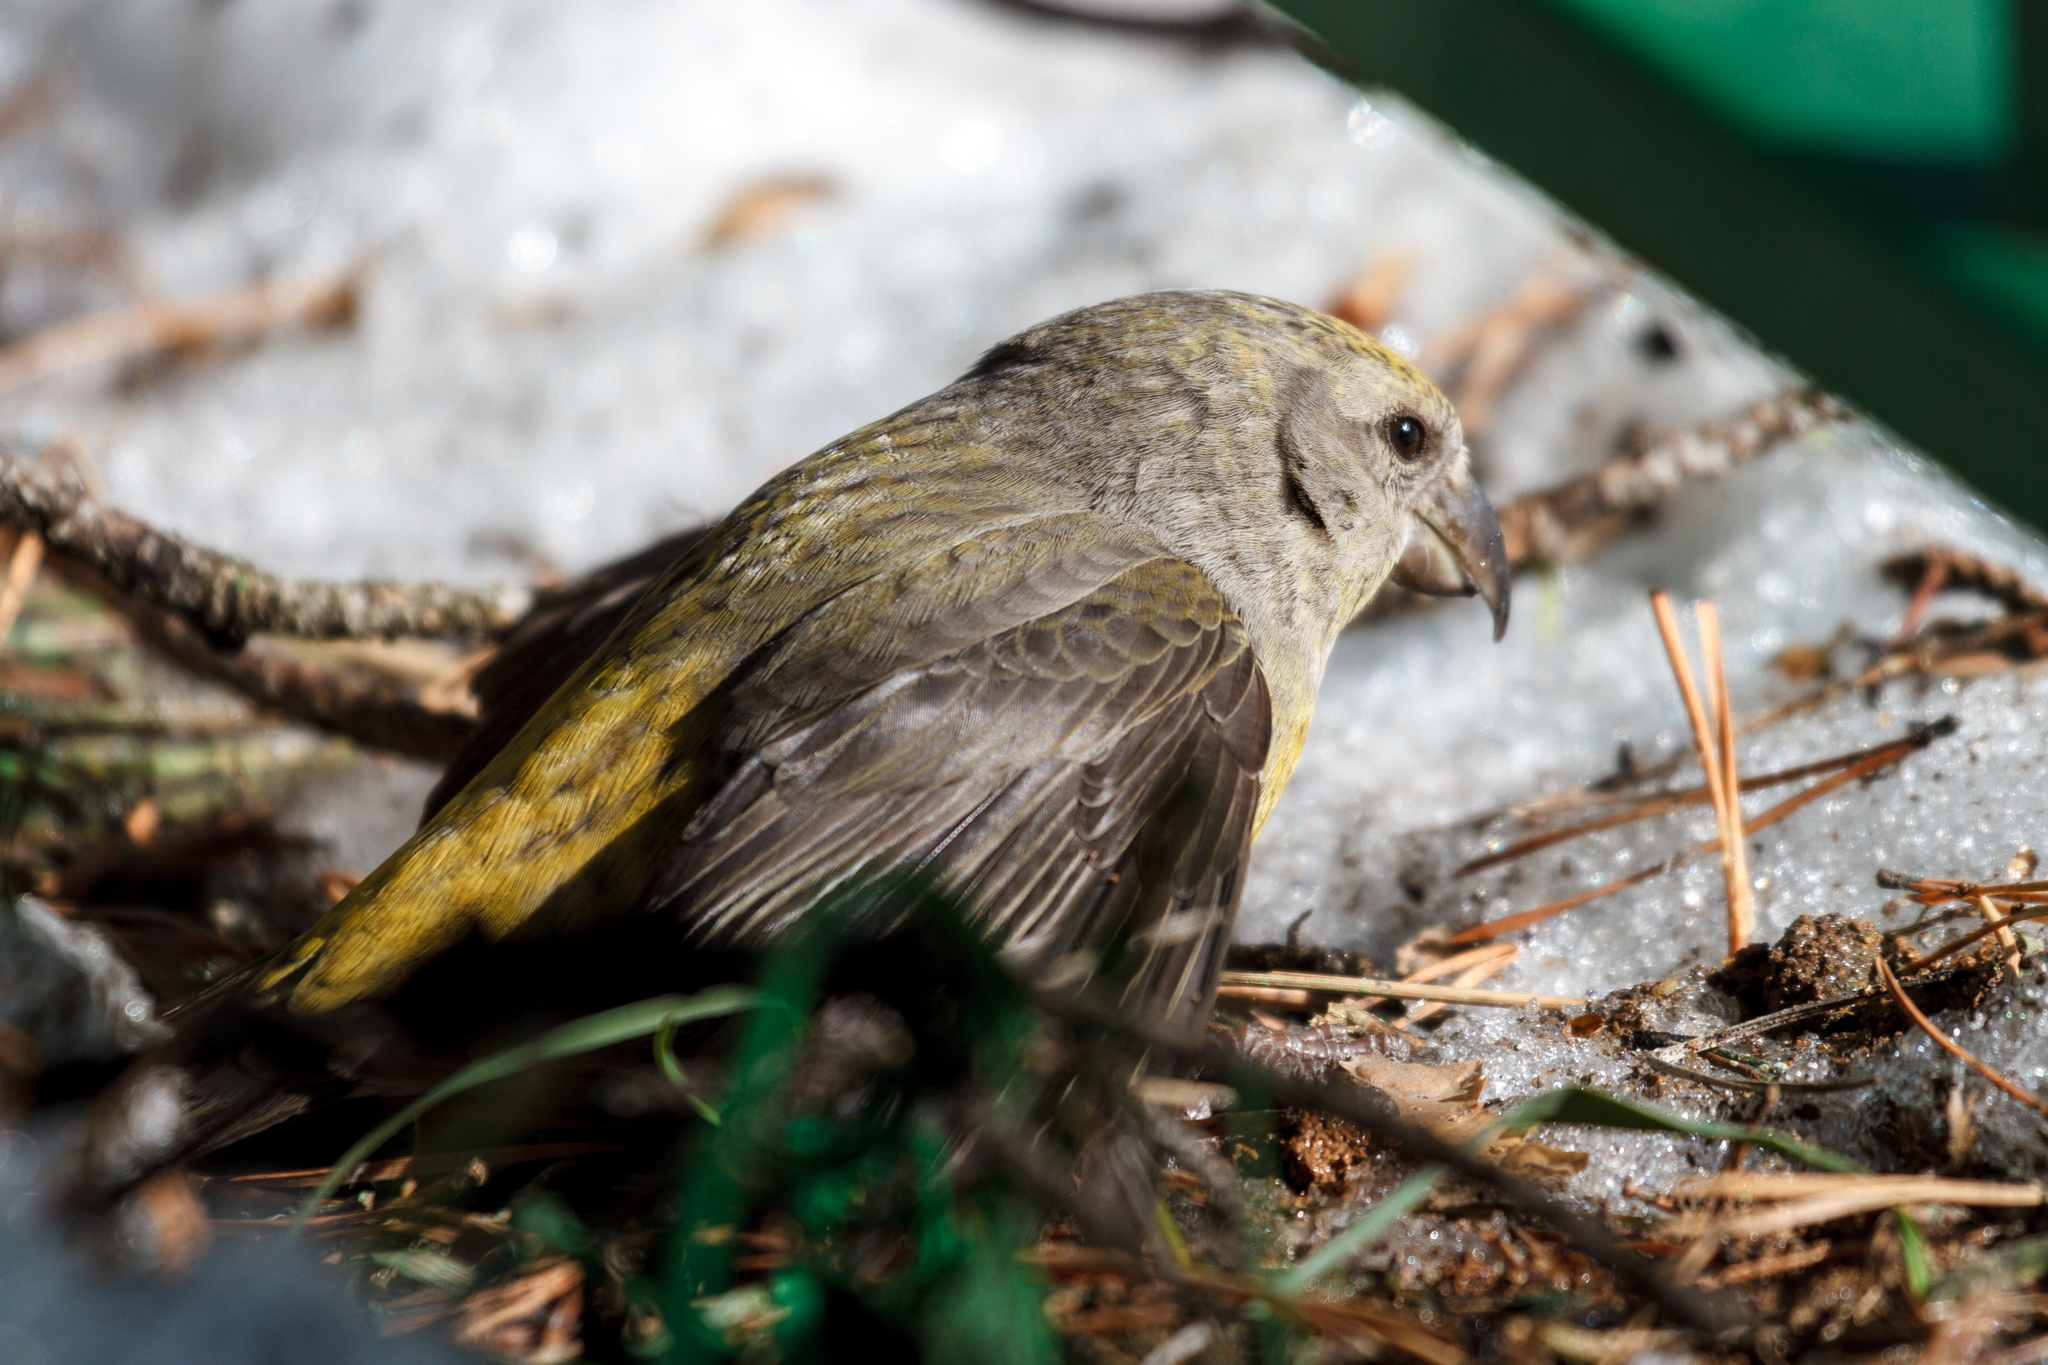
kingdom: Animalia
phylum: Chordata
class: Aves
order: Passeriformes
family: Fringillidae
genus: Loxia
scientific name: Loxia curvirostra
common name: Red crossbill
